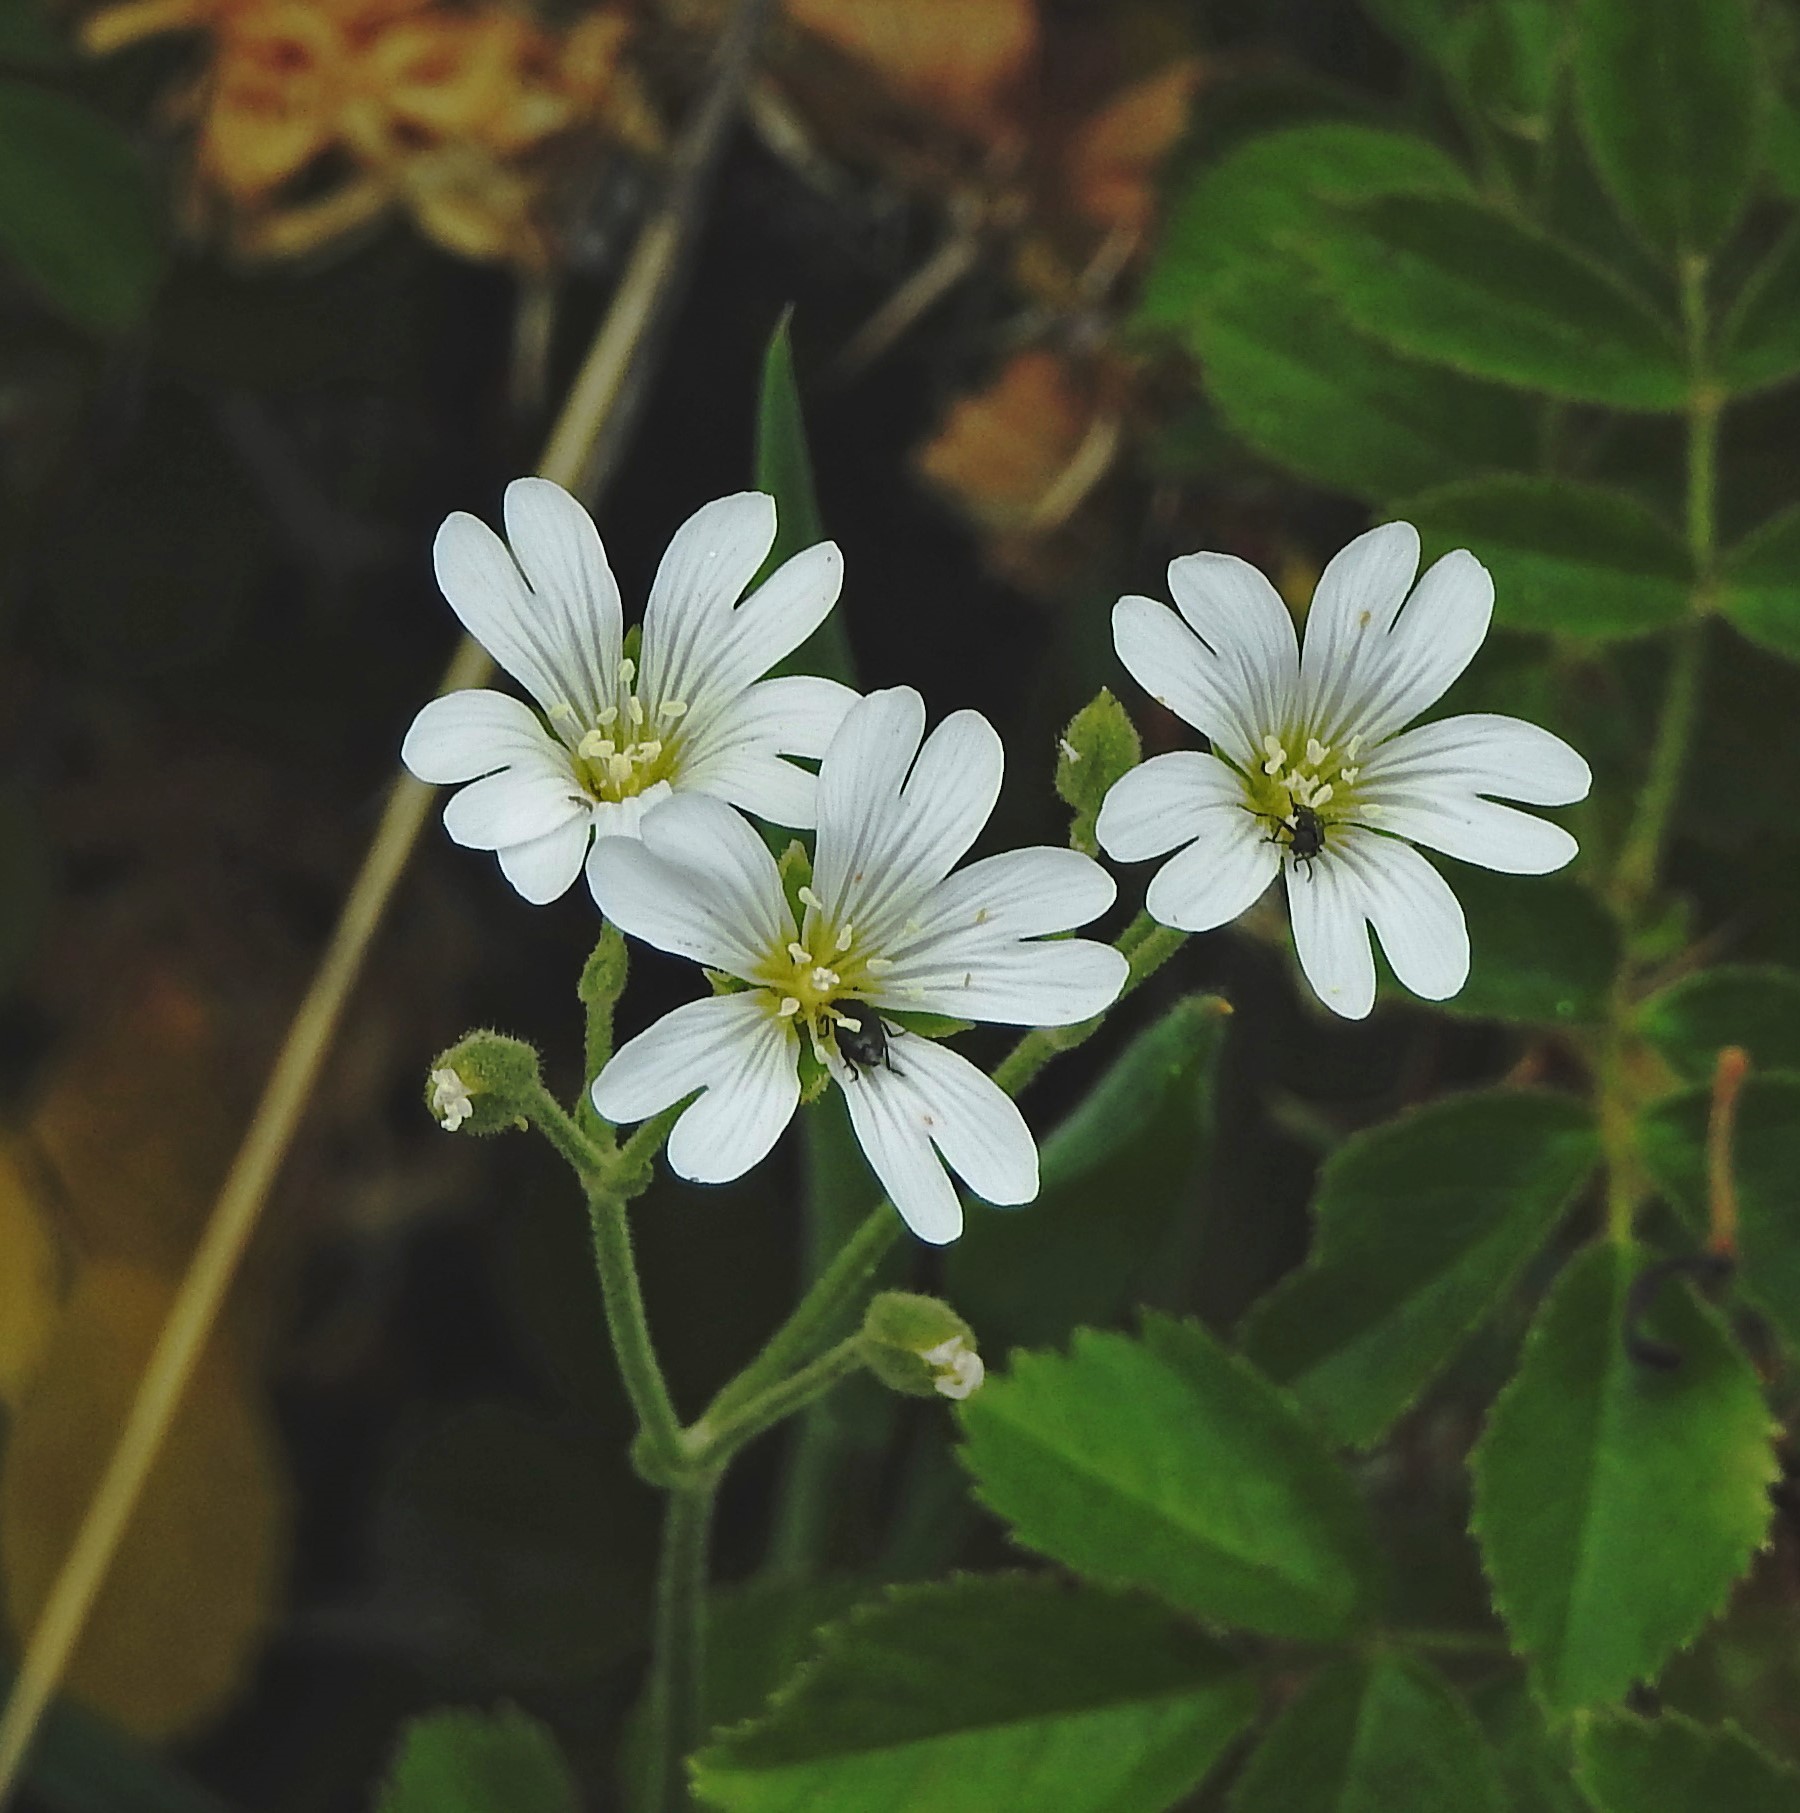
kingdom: Plantae
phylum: Tracheophyta
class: Magnoliopsida
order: Caryophyllales
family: Caryophyllaceae
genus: Cerastium
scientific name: Cerastium arvense
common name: Field mouse-ear
